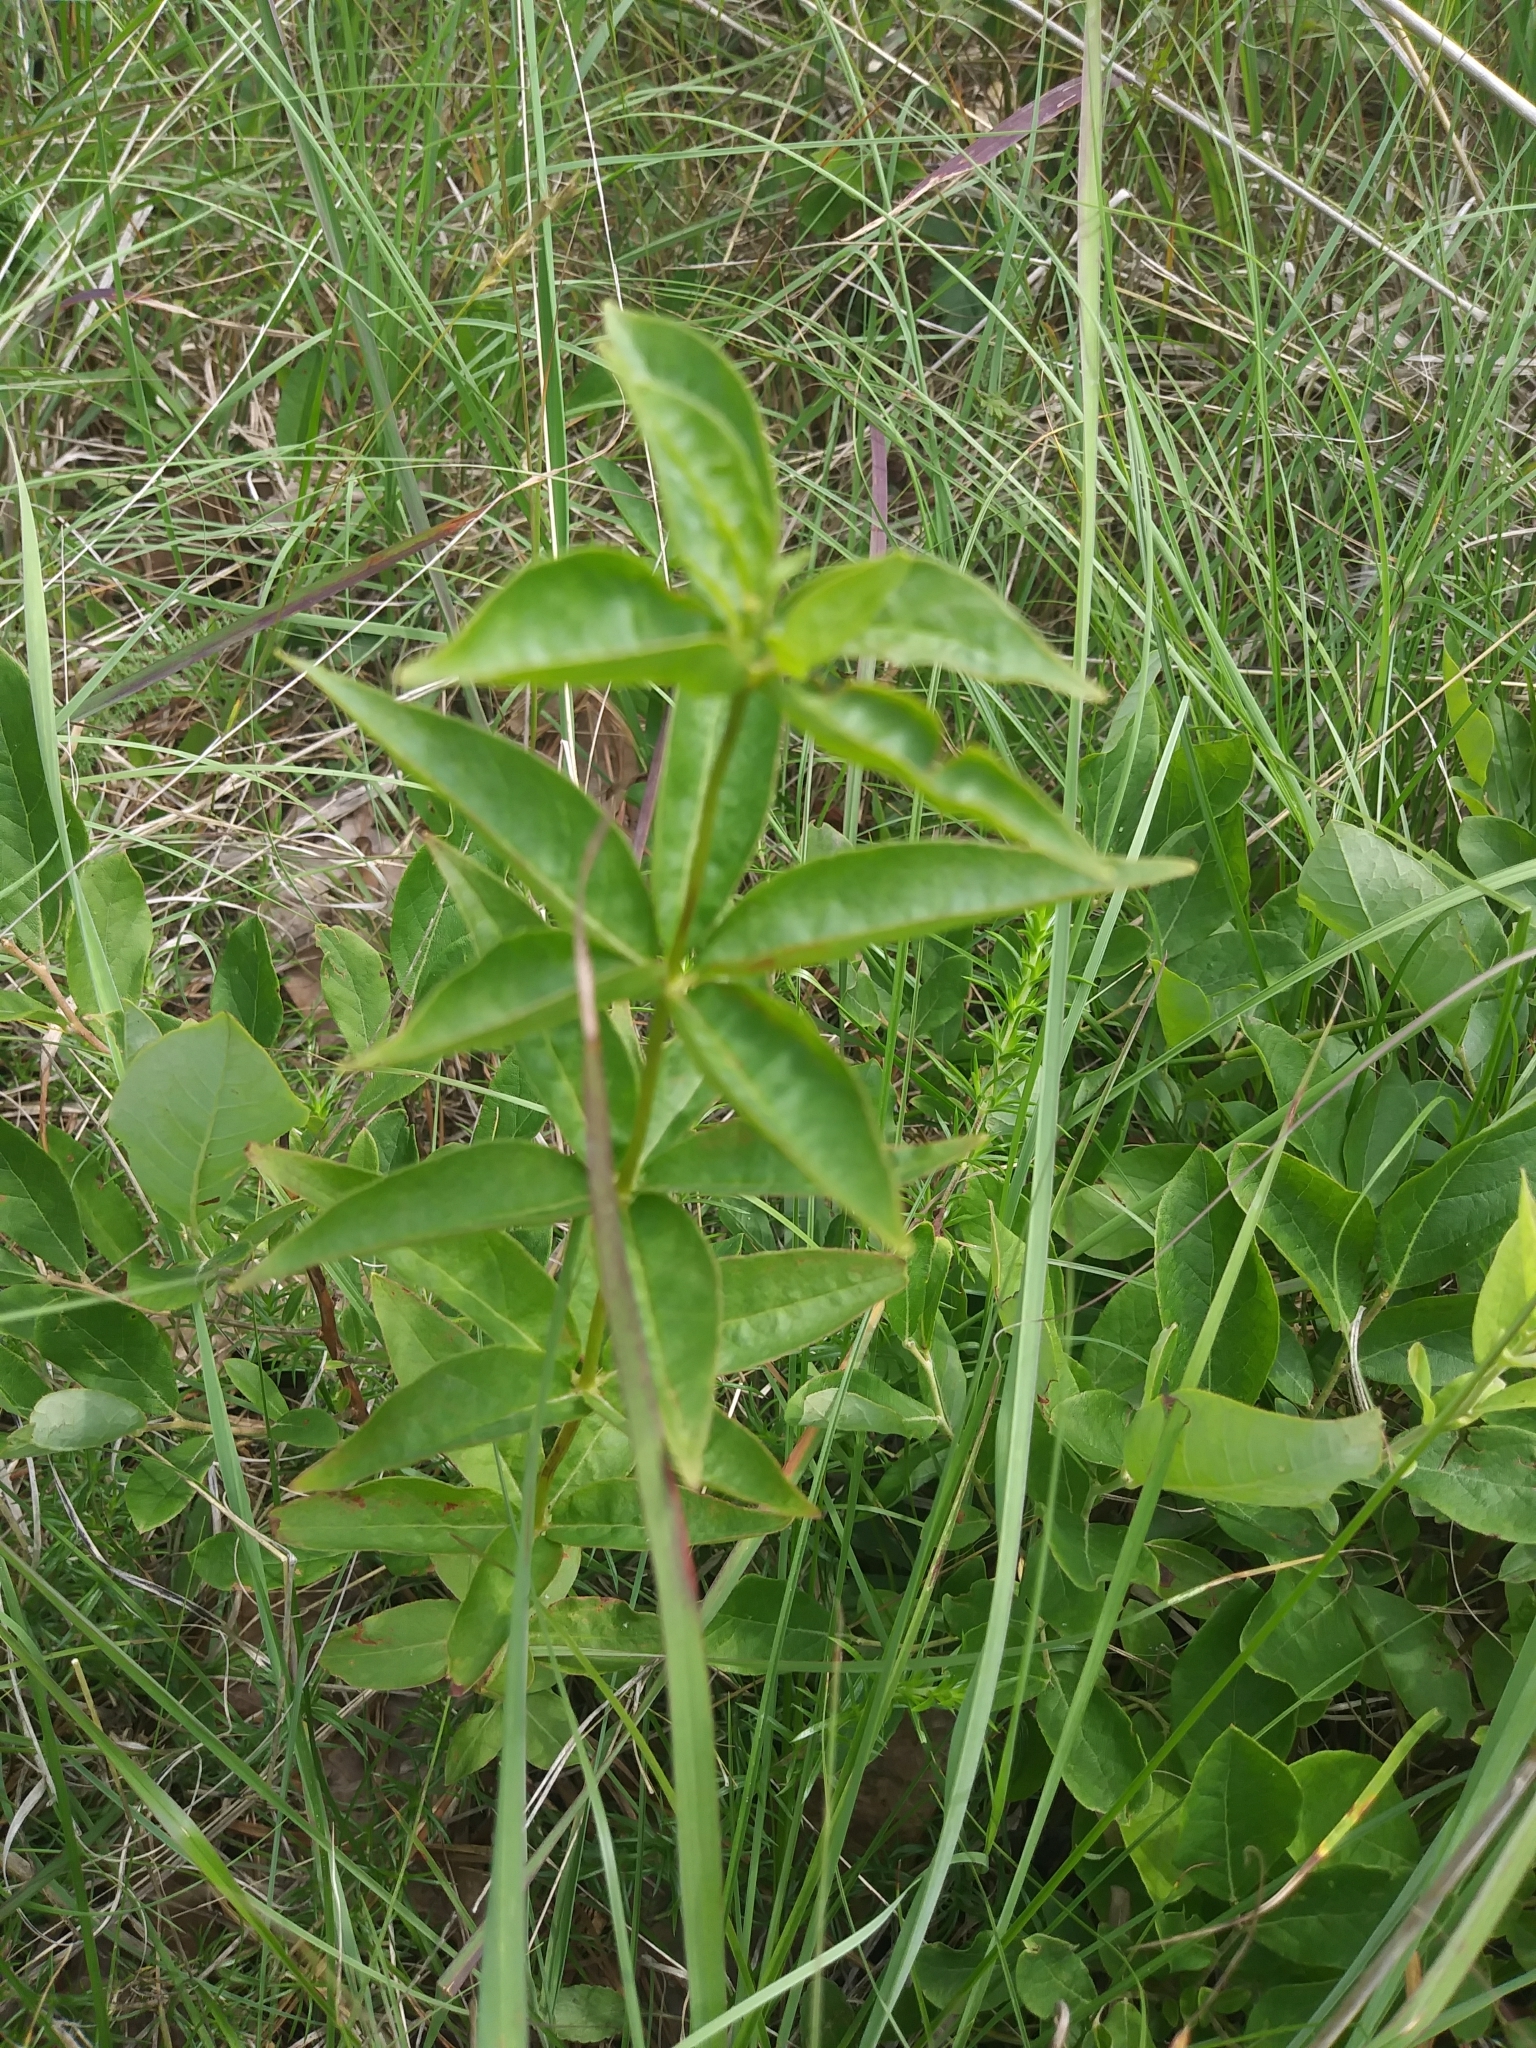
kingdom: Plantae
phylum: Tracheophyta
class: Magnoliopsida
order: Ericales
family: Primulaceae
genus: Lysimachia
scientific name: Lysimachia quadrifolia
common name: Whorled loosestrife
